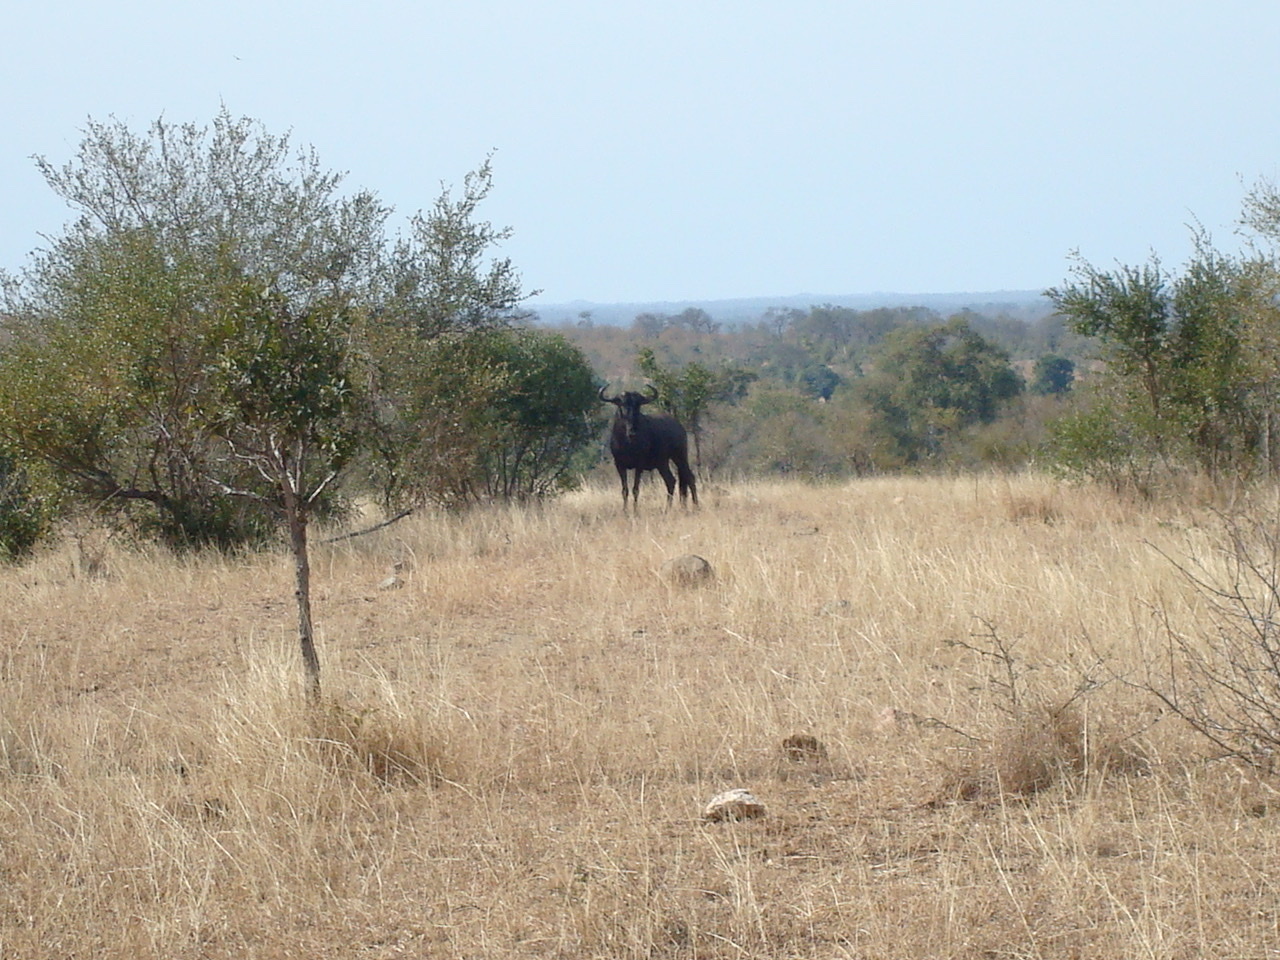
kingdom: Animalia
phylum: Chordata
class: Mammalia
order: Artiodactyla
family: Bovidae
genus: Connochaetes
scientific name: Connochaetes taurinus
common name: Blue wildebeest
